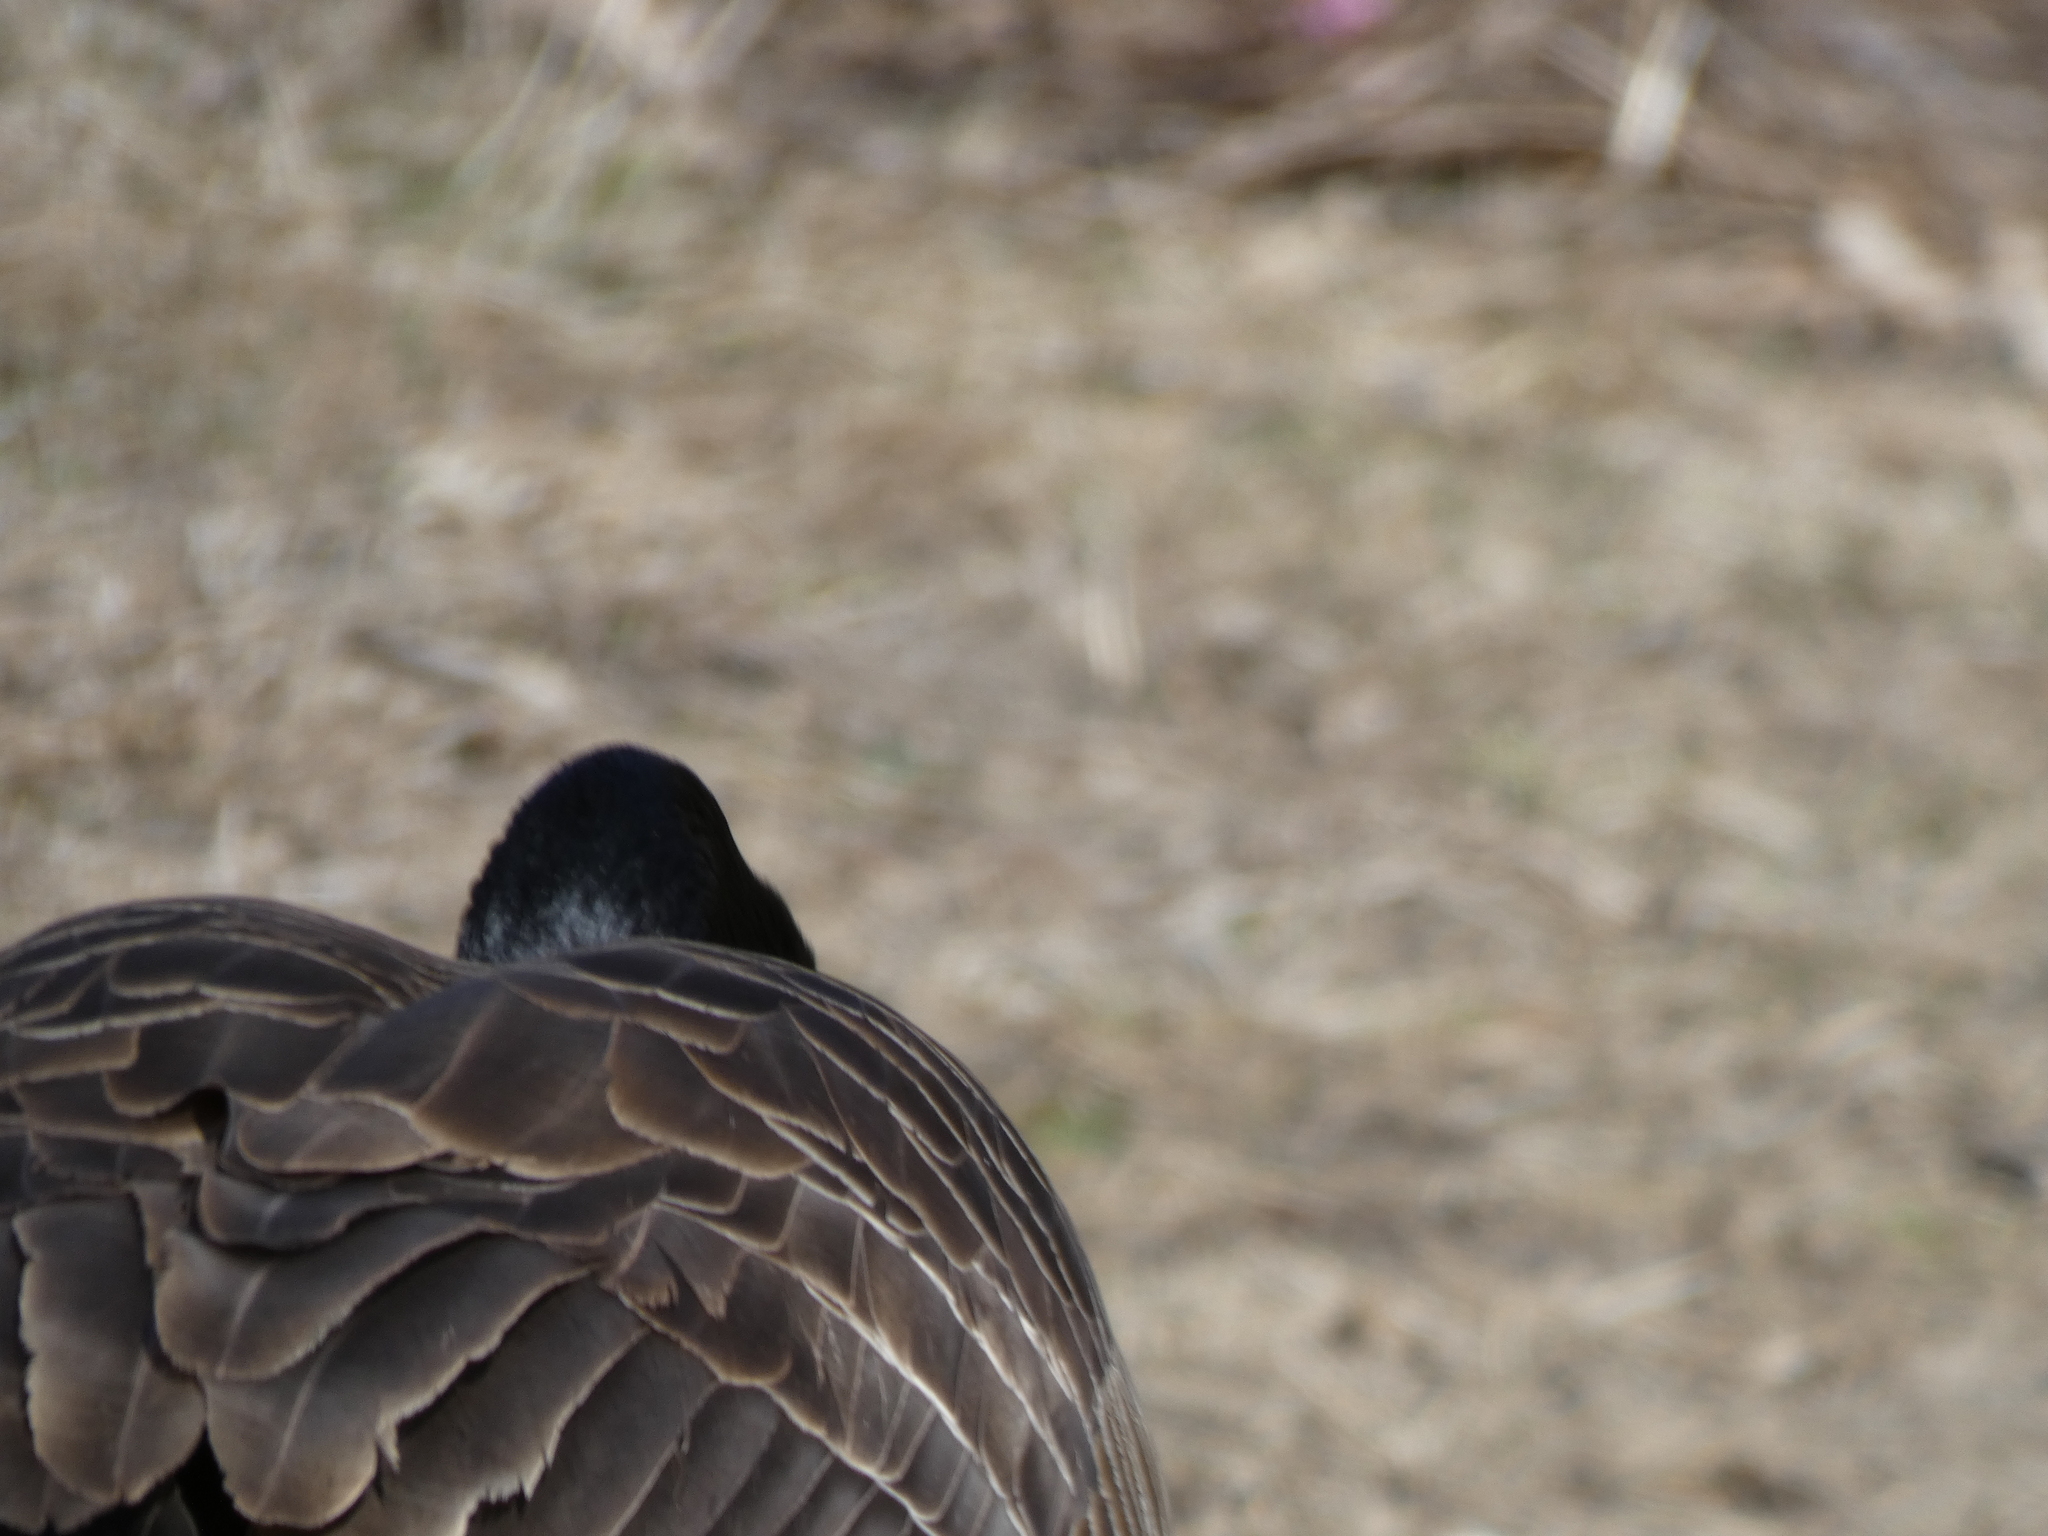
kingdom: Animalia
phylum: Chordata
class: Aves
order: Anseriformes
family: Anatidae
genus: Branta
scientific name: Branta canadensis
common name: Canada goose
